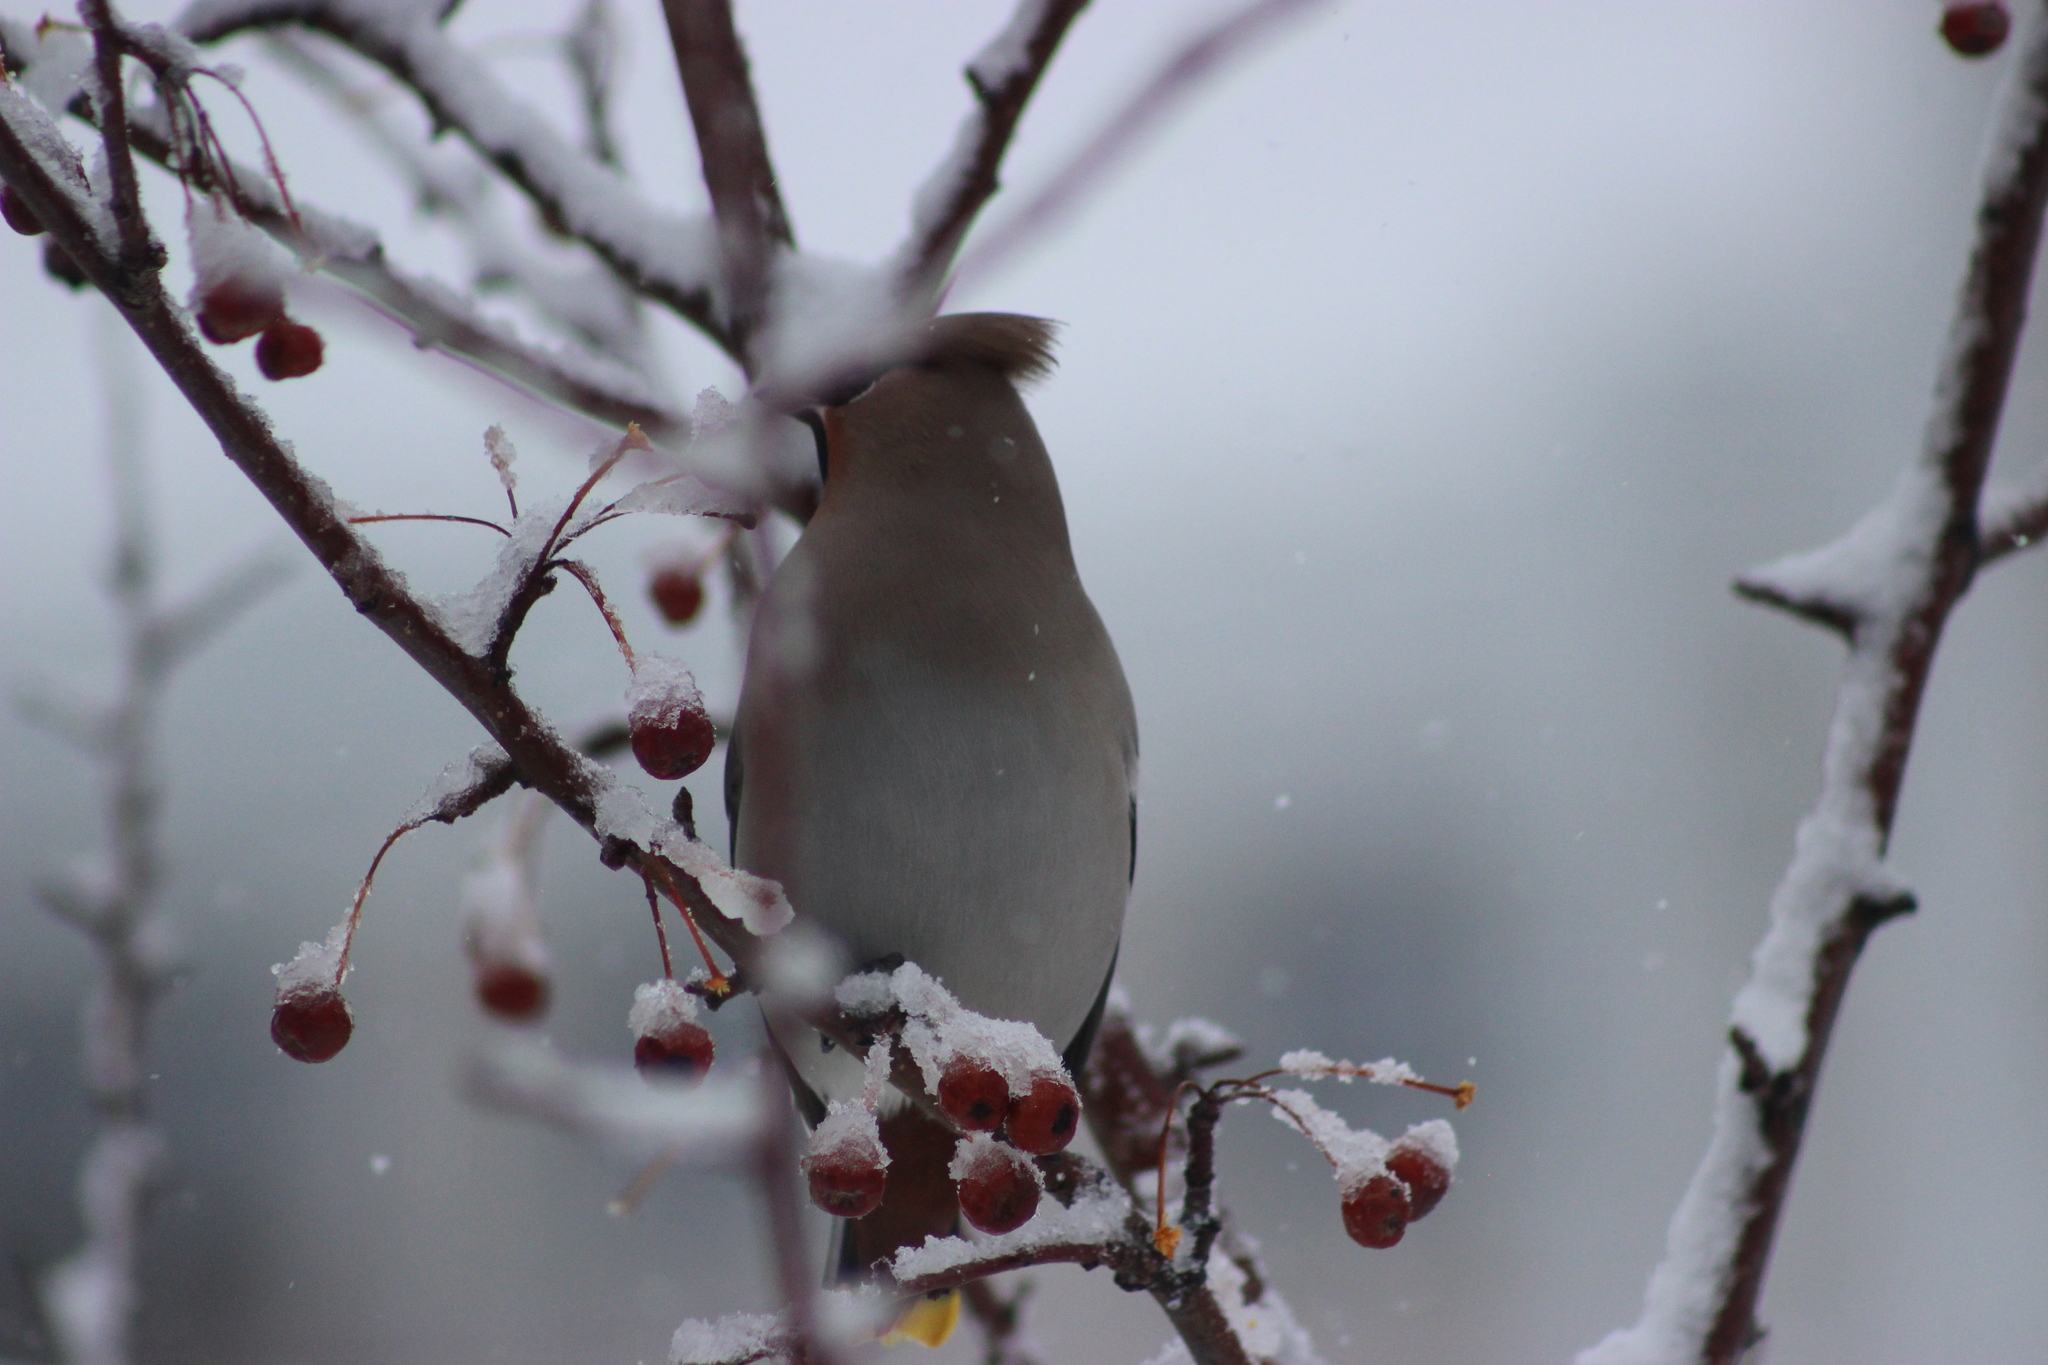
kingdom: Animalia
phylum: Chordata
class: Aves
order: Passeriformes
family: Bombycillidae
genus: Bombycilla
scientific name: Bombycilla garrulus
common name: Bohemian waxwing
